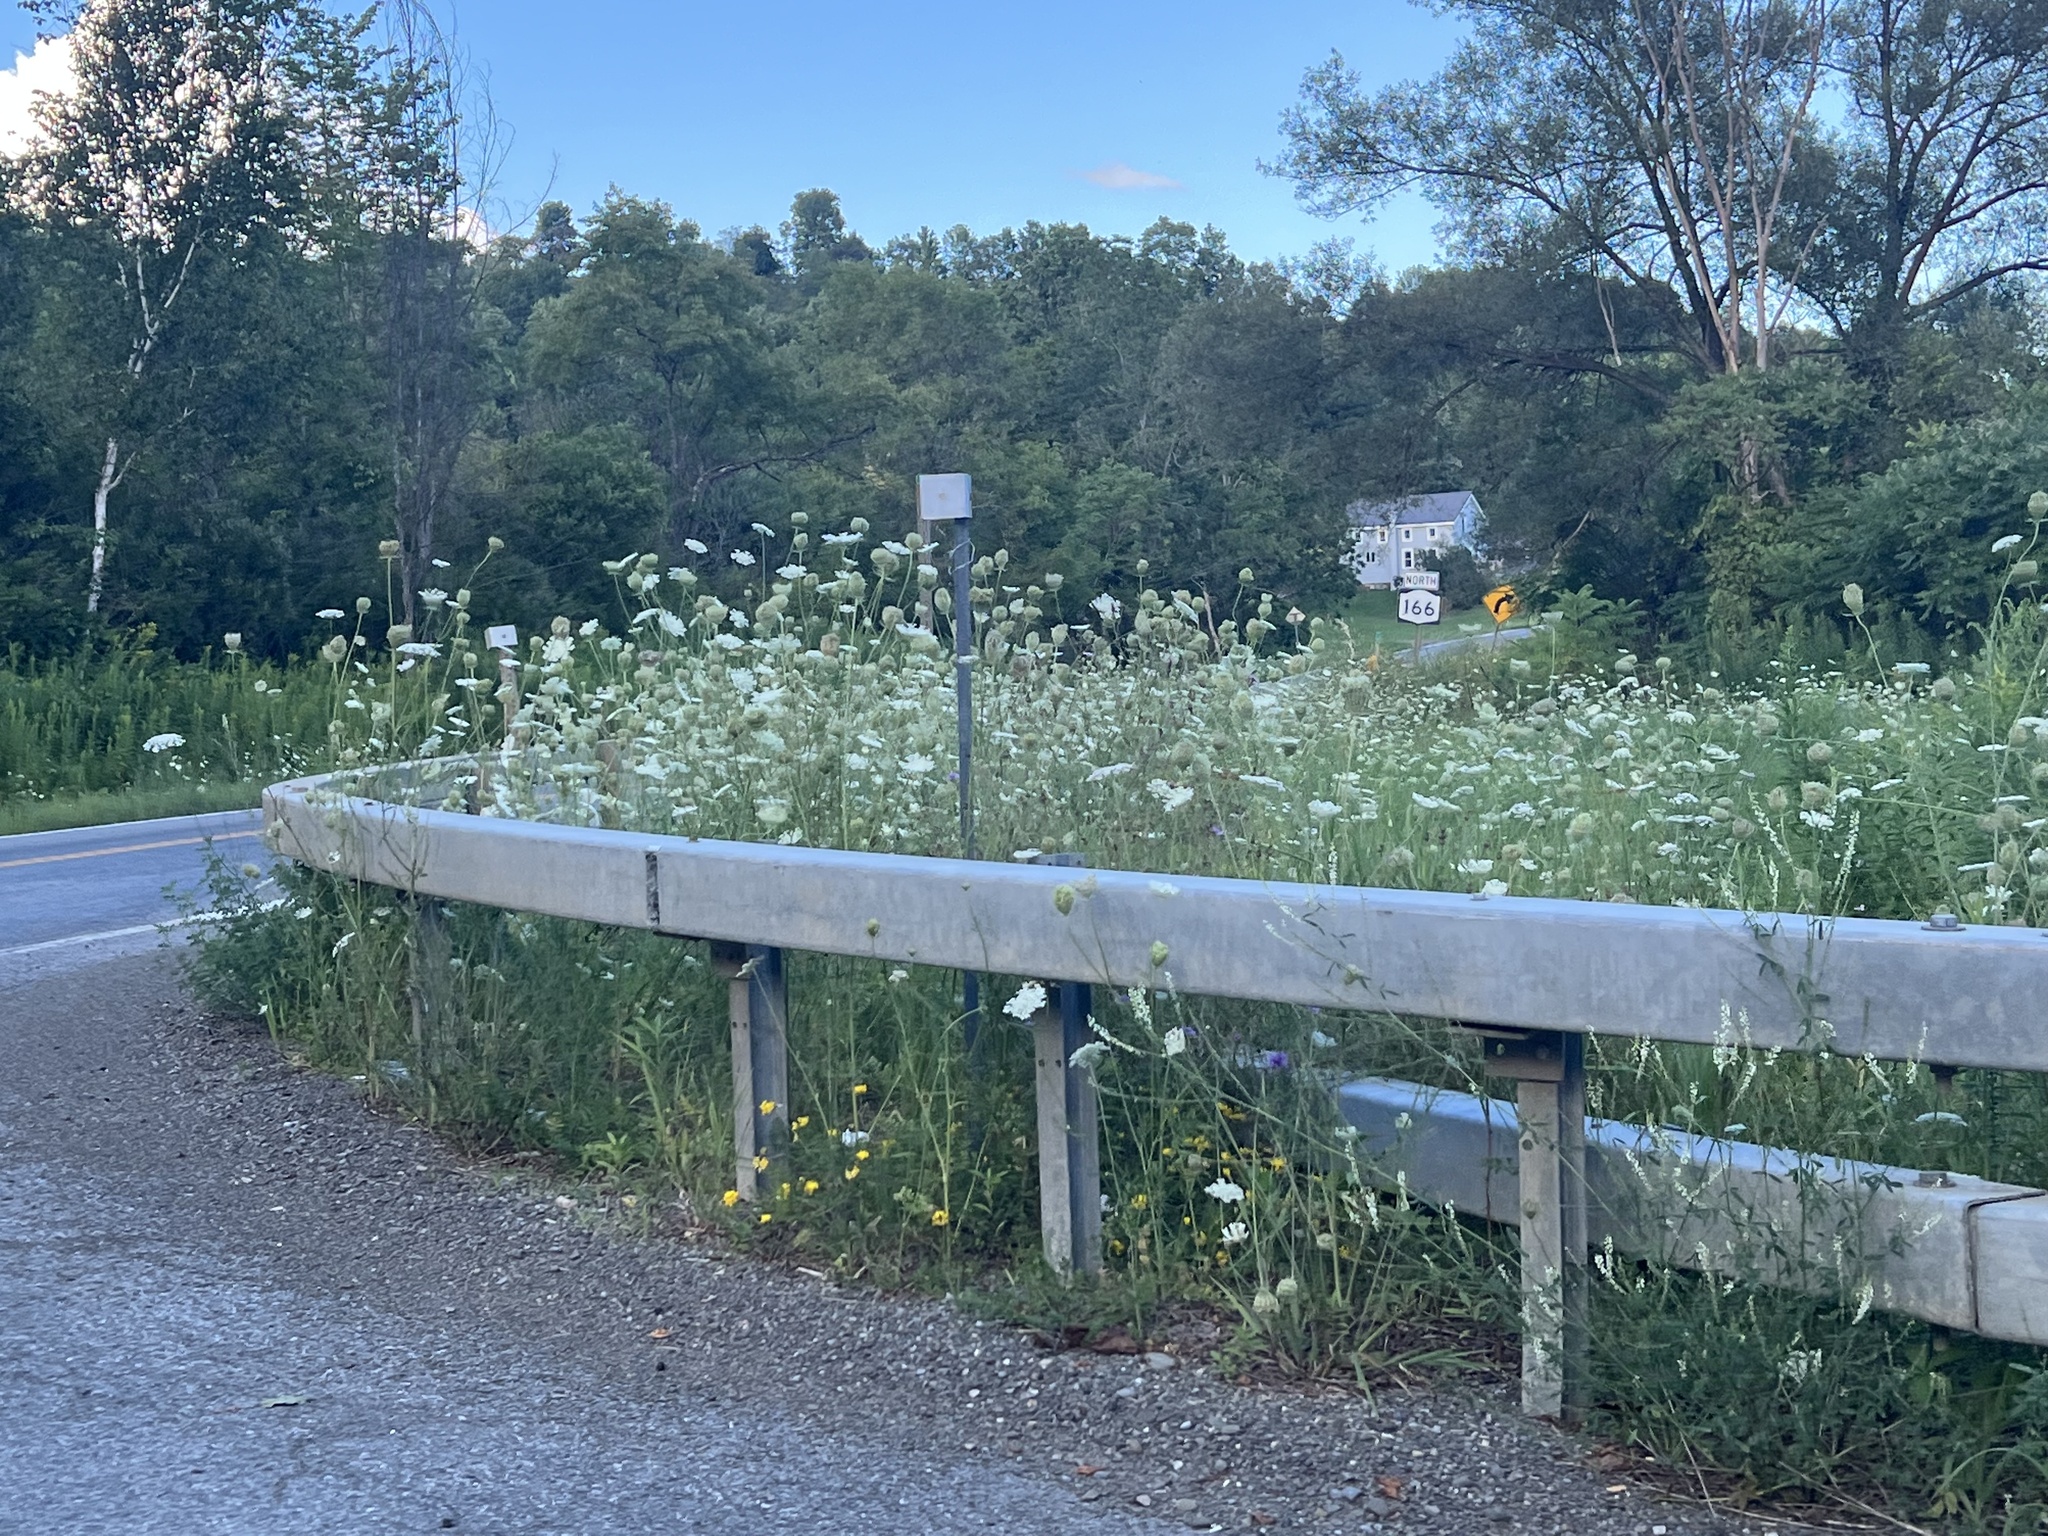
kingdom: Plantae
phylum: Tracheophyta
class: Magnoliopsida
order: Apiales
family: Apiaceae
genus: Daucus
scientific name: Daucus carota
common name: Wild carrot
